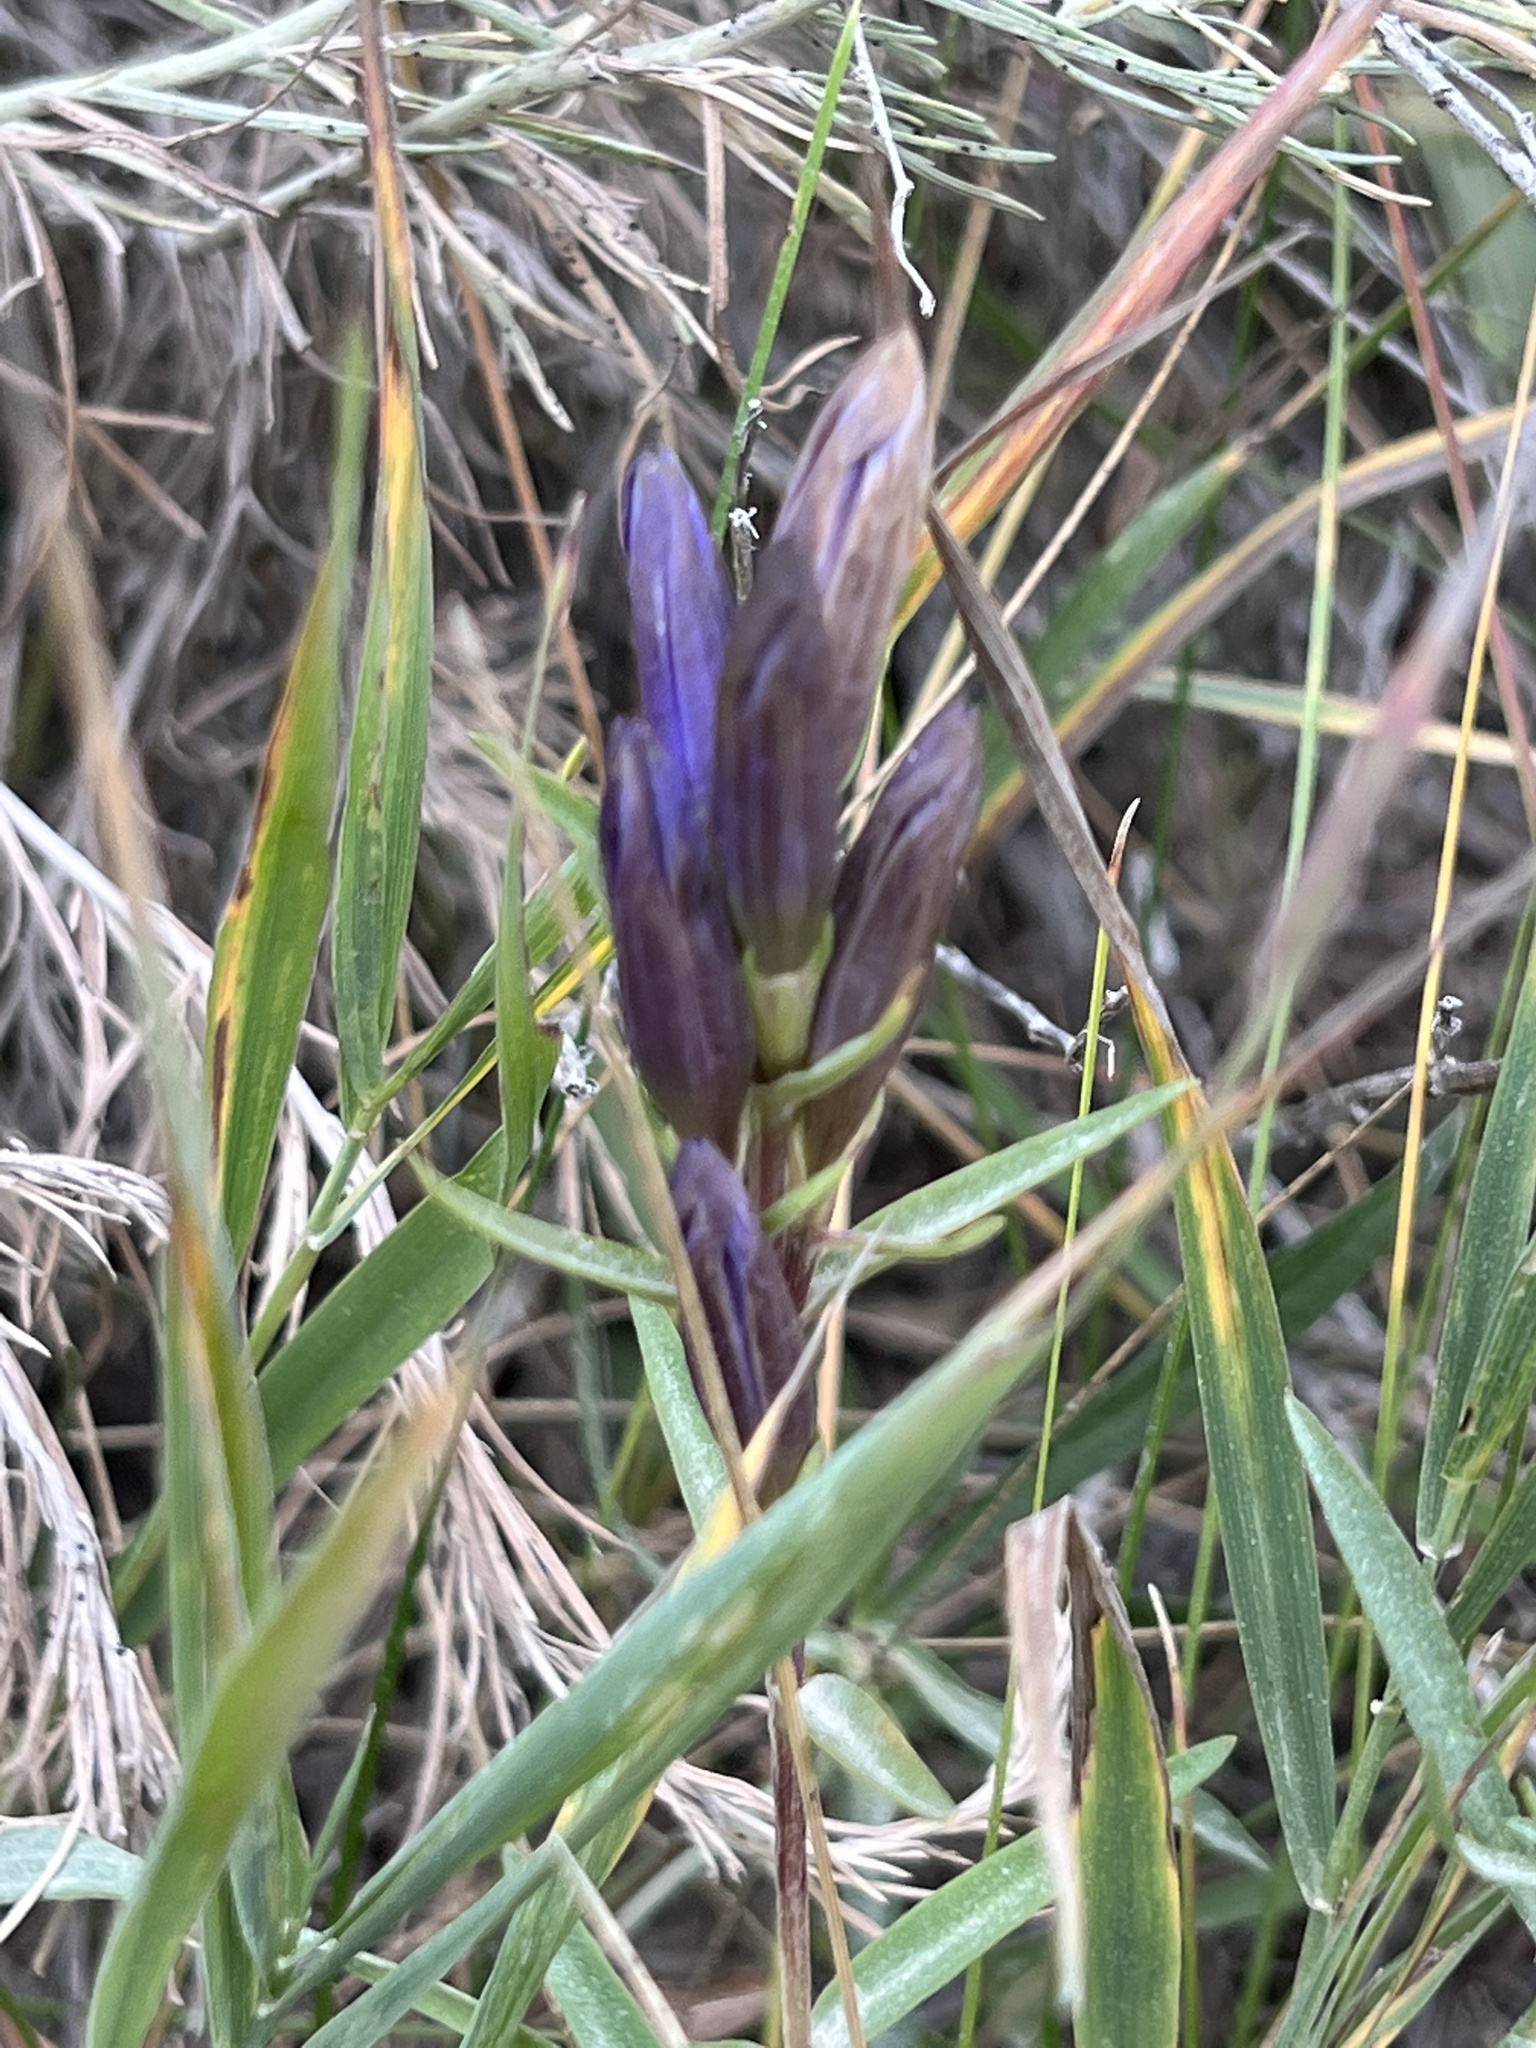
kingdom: Plantae
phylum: Tracheophyta
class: Magnoliopsida
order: Gentianales
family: Gentianaceae
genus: Gentiana
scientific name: Gentiana affinis
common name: Rocky mountain gentian
